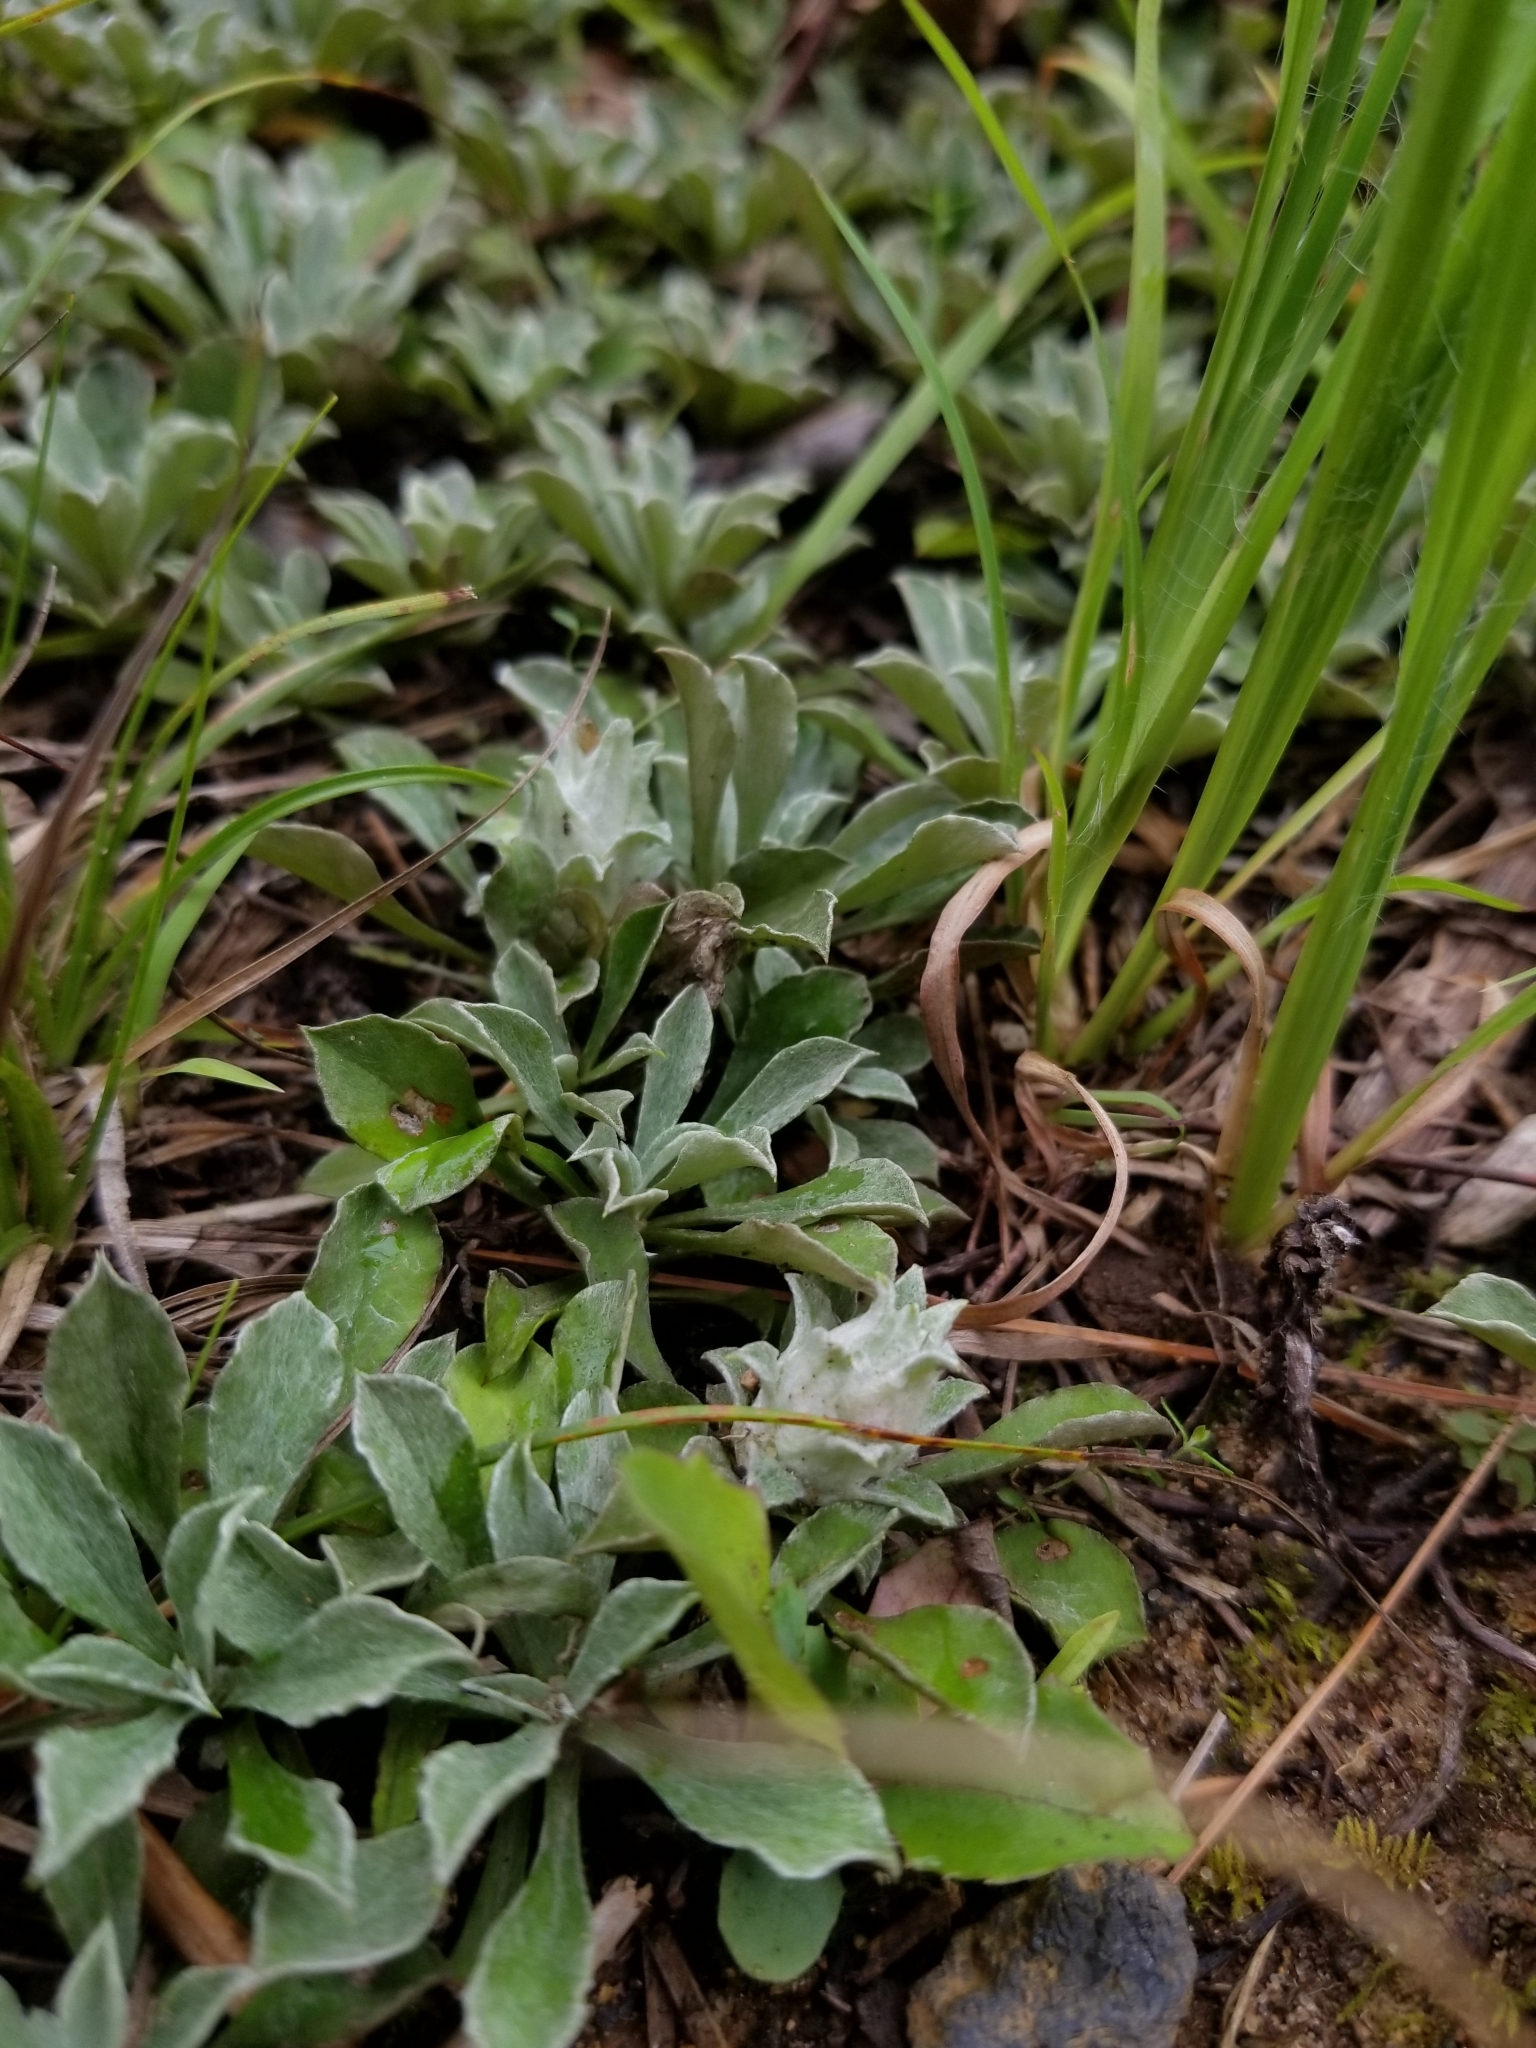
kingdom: Animalia
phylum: Arthropoda
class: Insecta
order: Diptera
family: Cecidomyiidae
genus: Asphondylia
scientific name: Asphondylia antennariae
